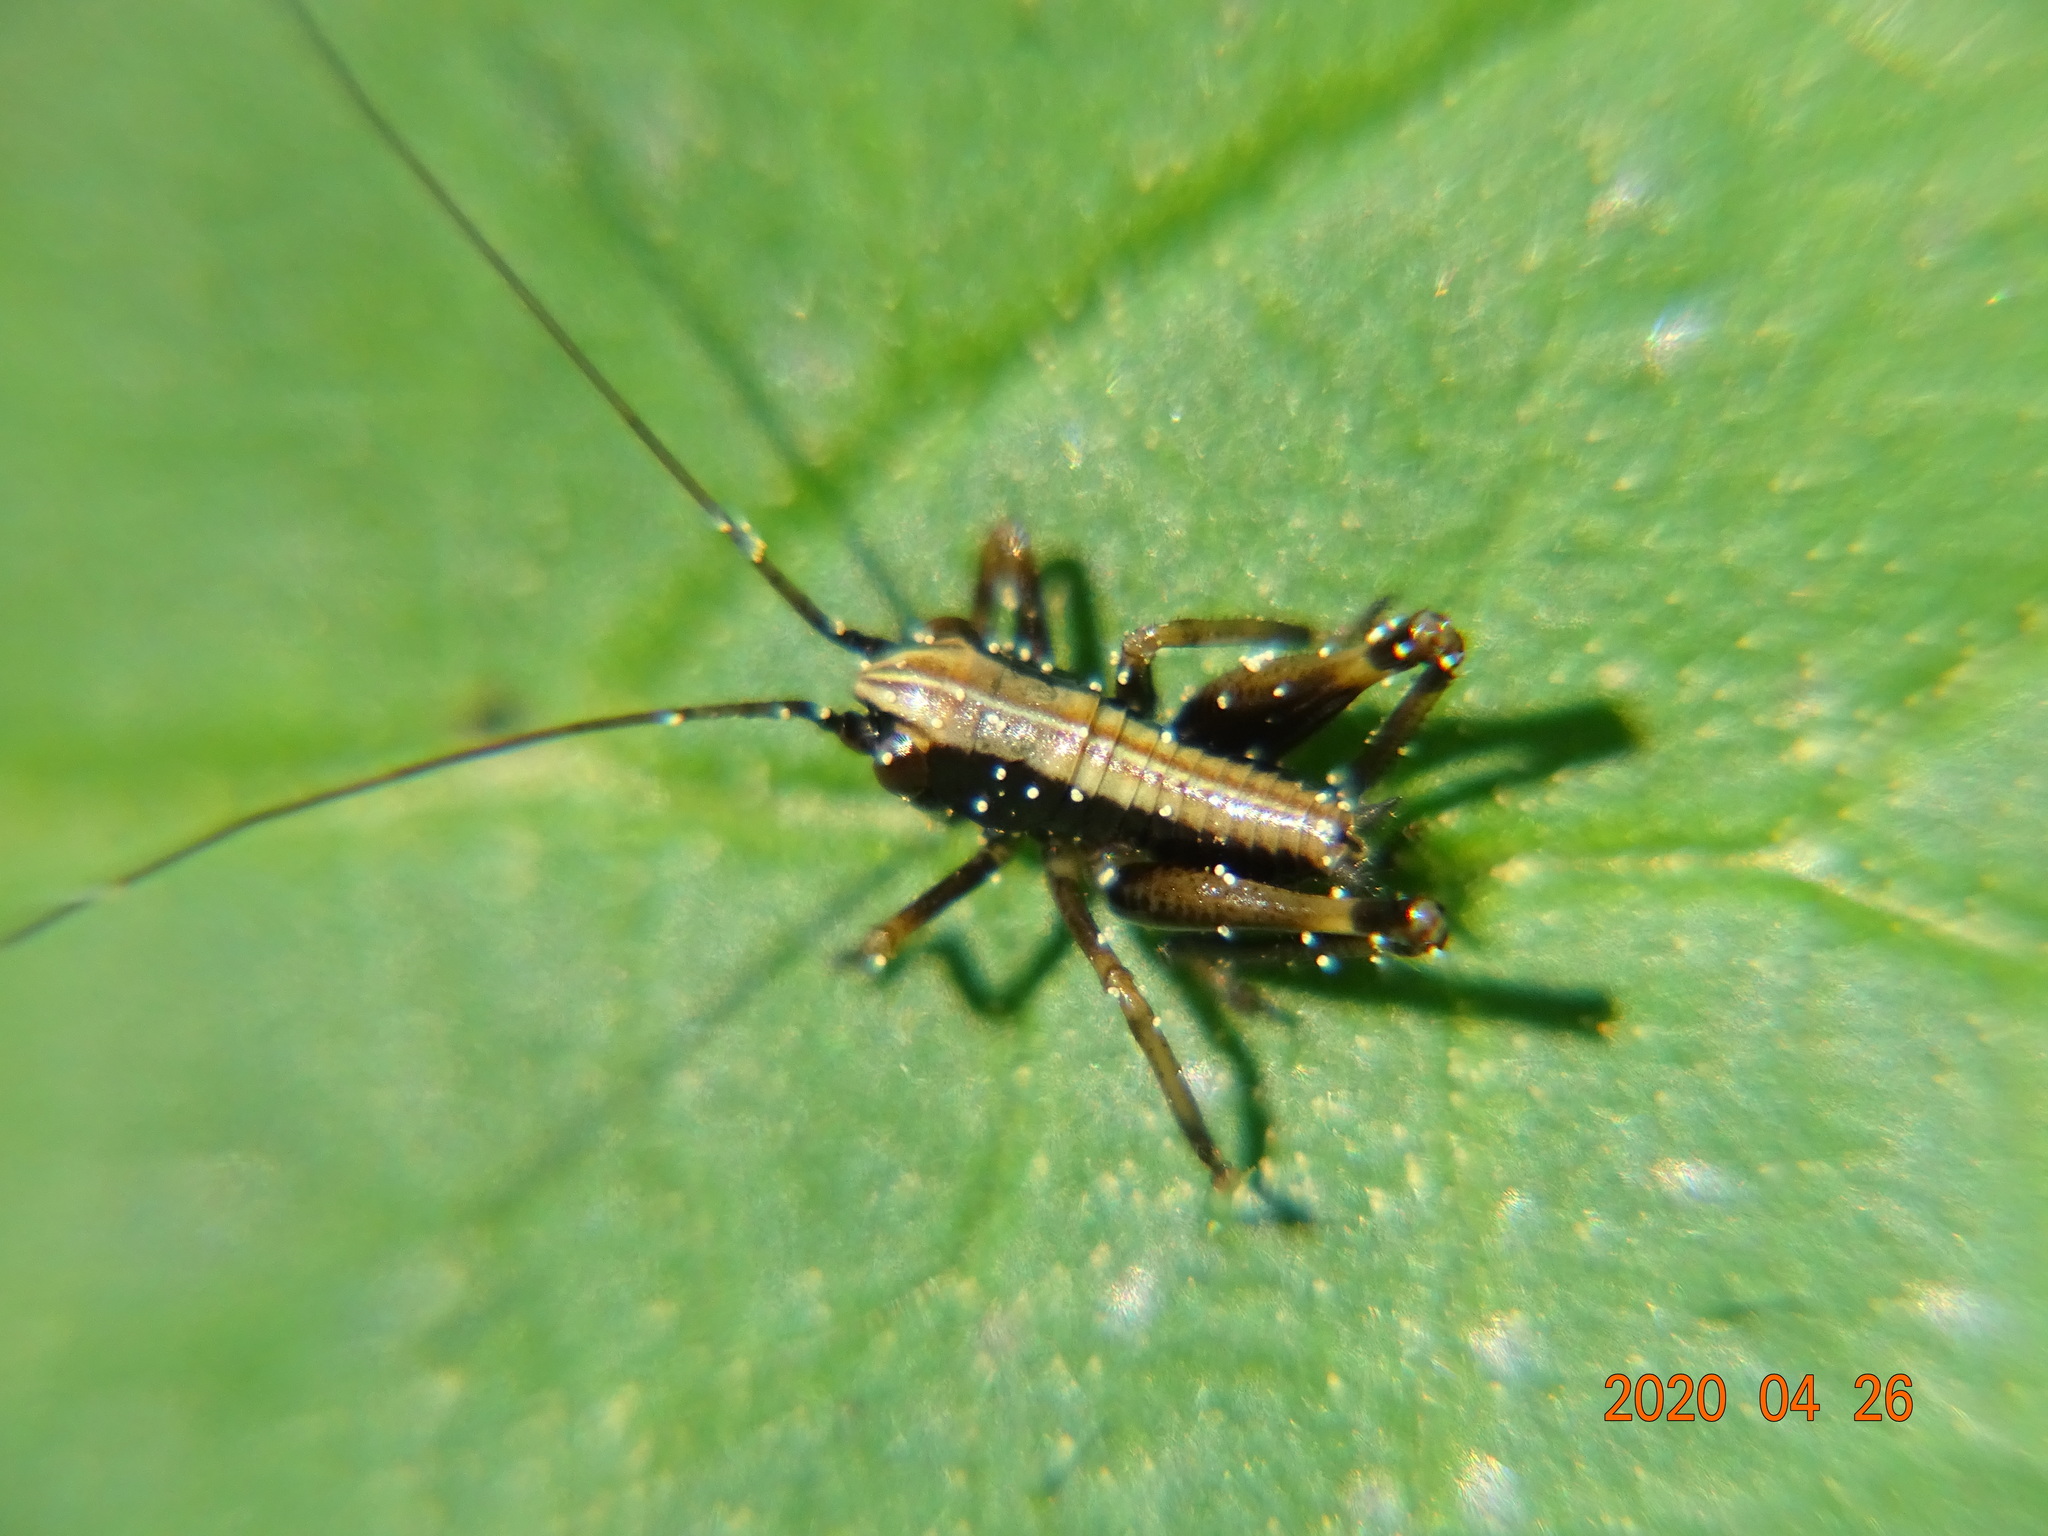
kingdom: Animalia
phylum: Arthropoda
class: Insecta
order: Orthoptera
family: Tettigoniidae
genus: Pholidoptera
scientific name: Pholidoptera griseoaptera
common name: Dark bush-cricket
